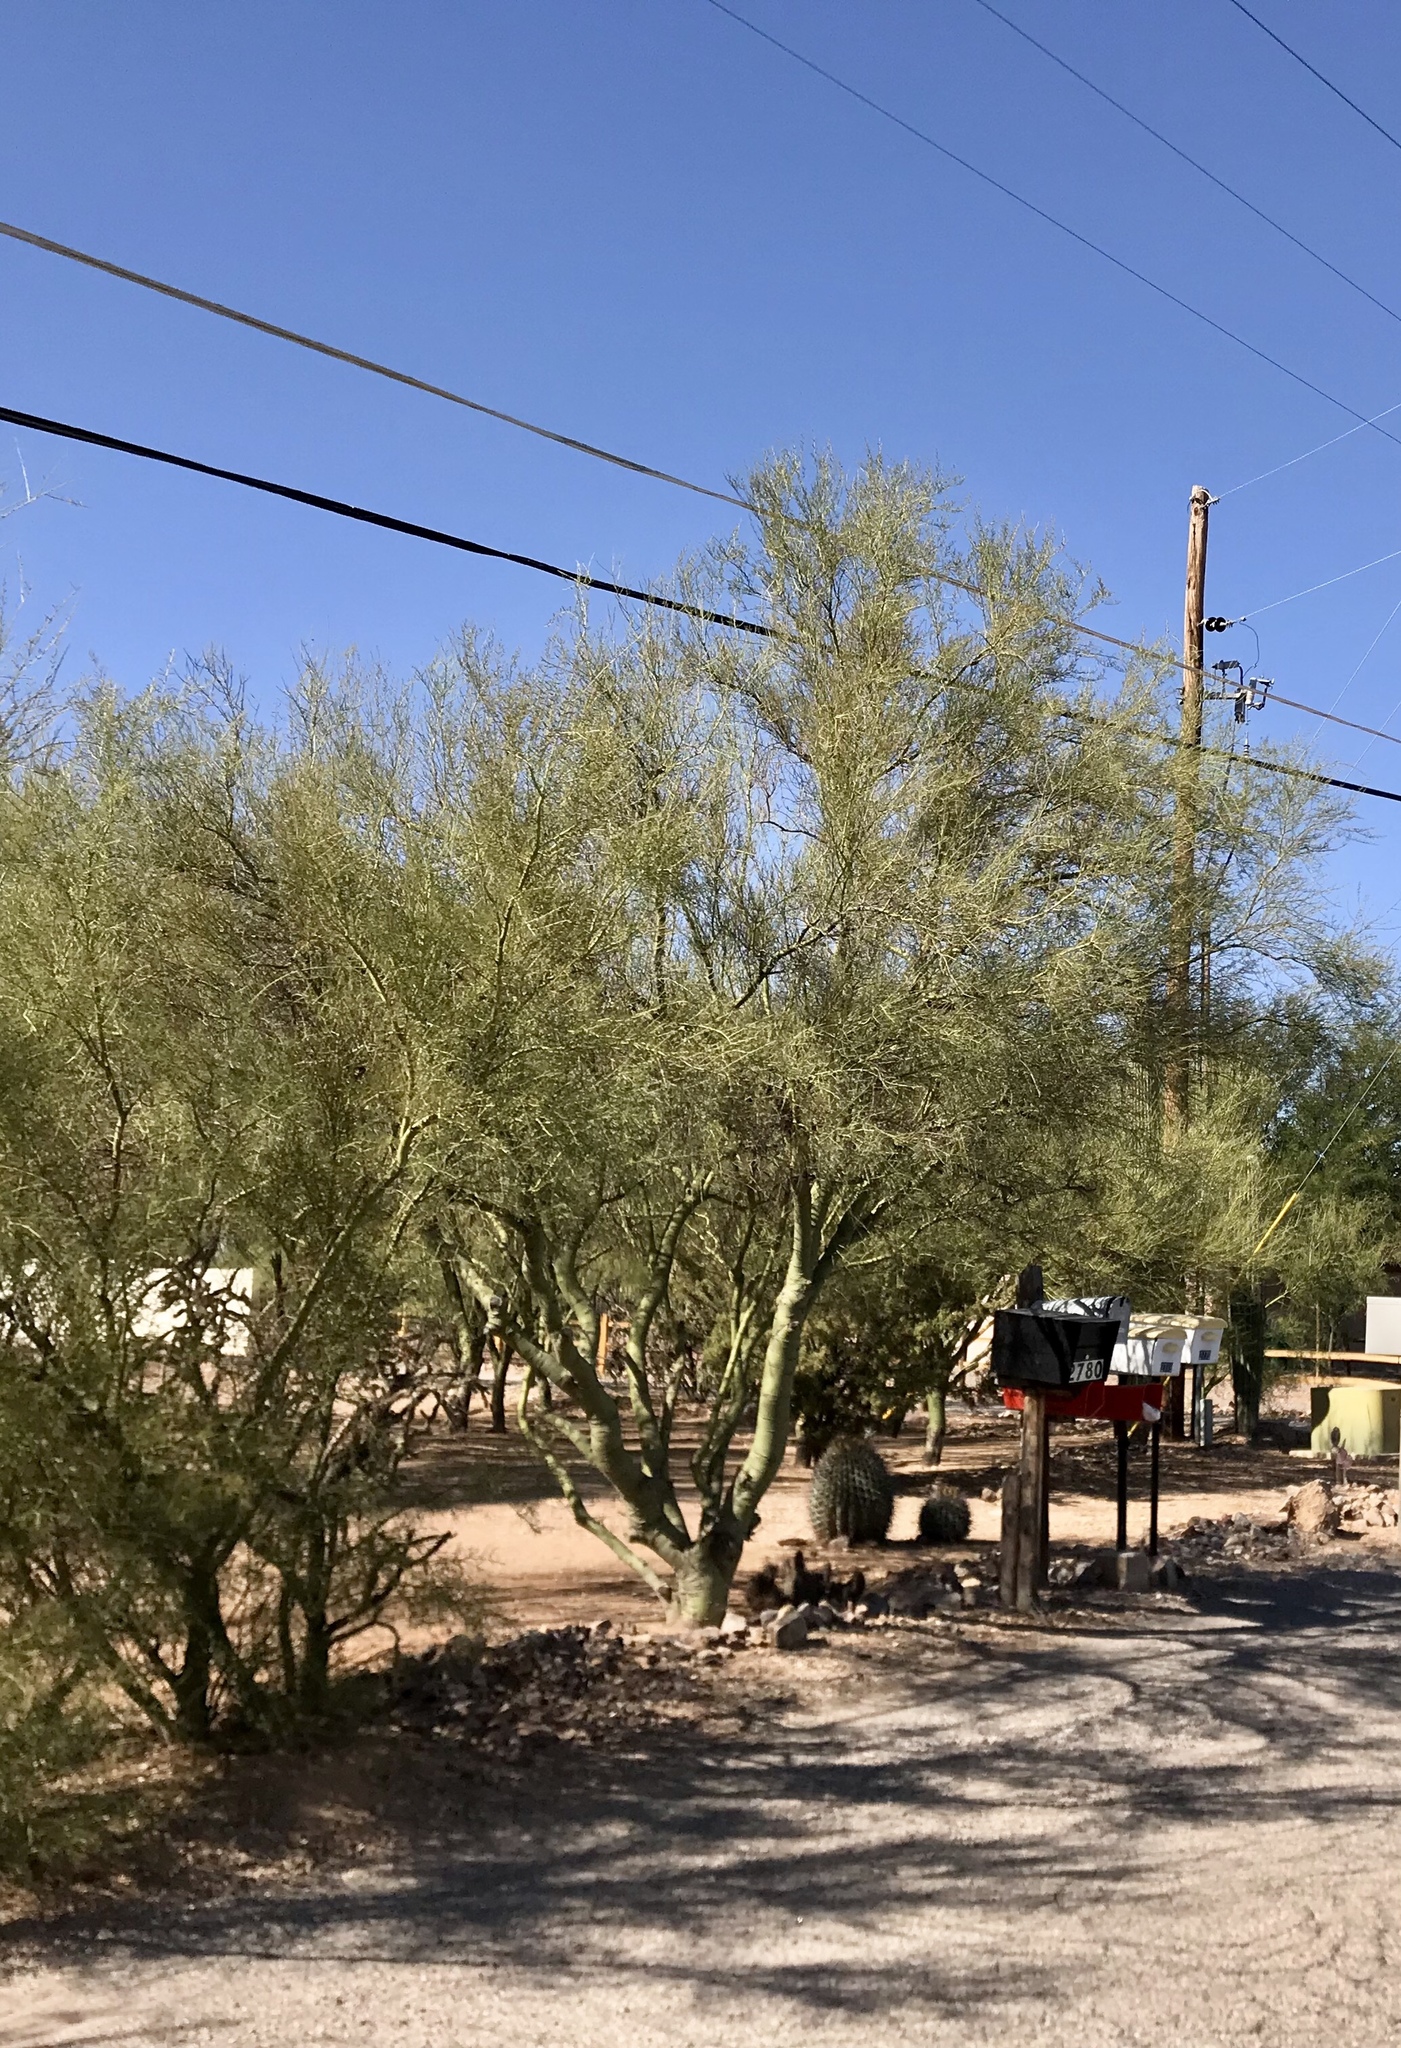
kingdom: Plantae
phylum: Tracheophyta
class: Magnoliopsida
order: Fabales
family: Fabaceae
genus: Parkinsonia
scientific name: Parkinsonia microphylla
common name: Yellow paloverde
